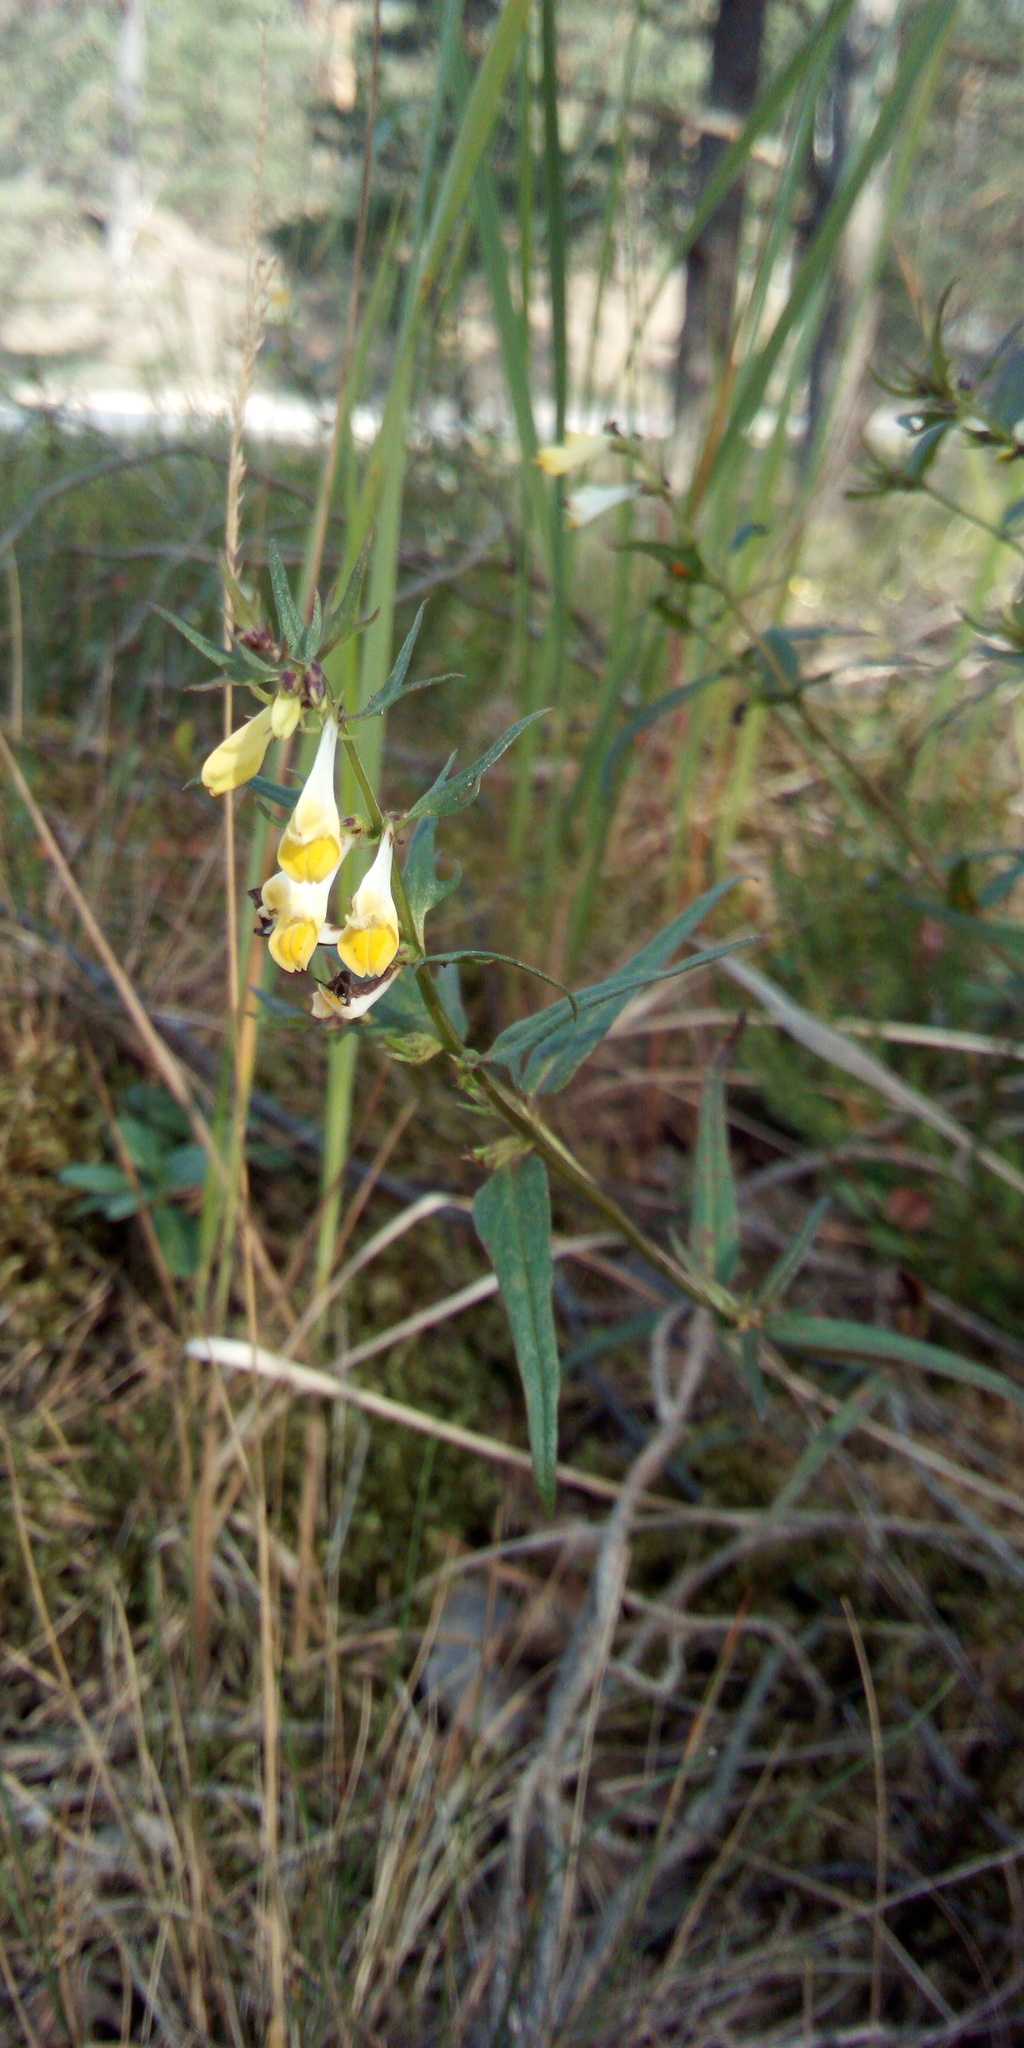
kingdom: Plantae
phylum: Tracheophyta
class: Magnoliopsida
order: Lamiales
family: Orobanchaceae
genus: Melampyrum
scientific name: Melampyrum pratense
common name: Common cow-wheat
